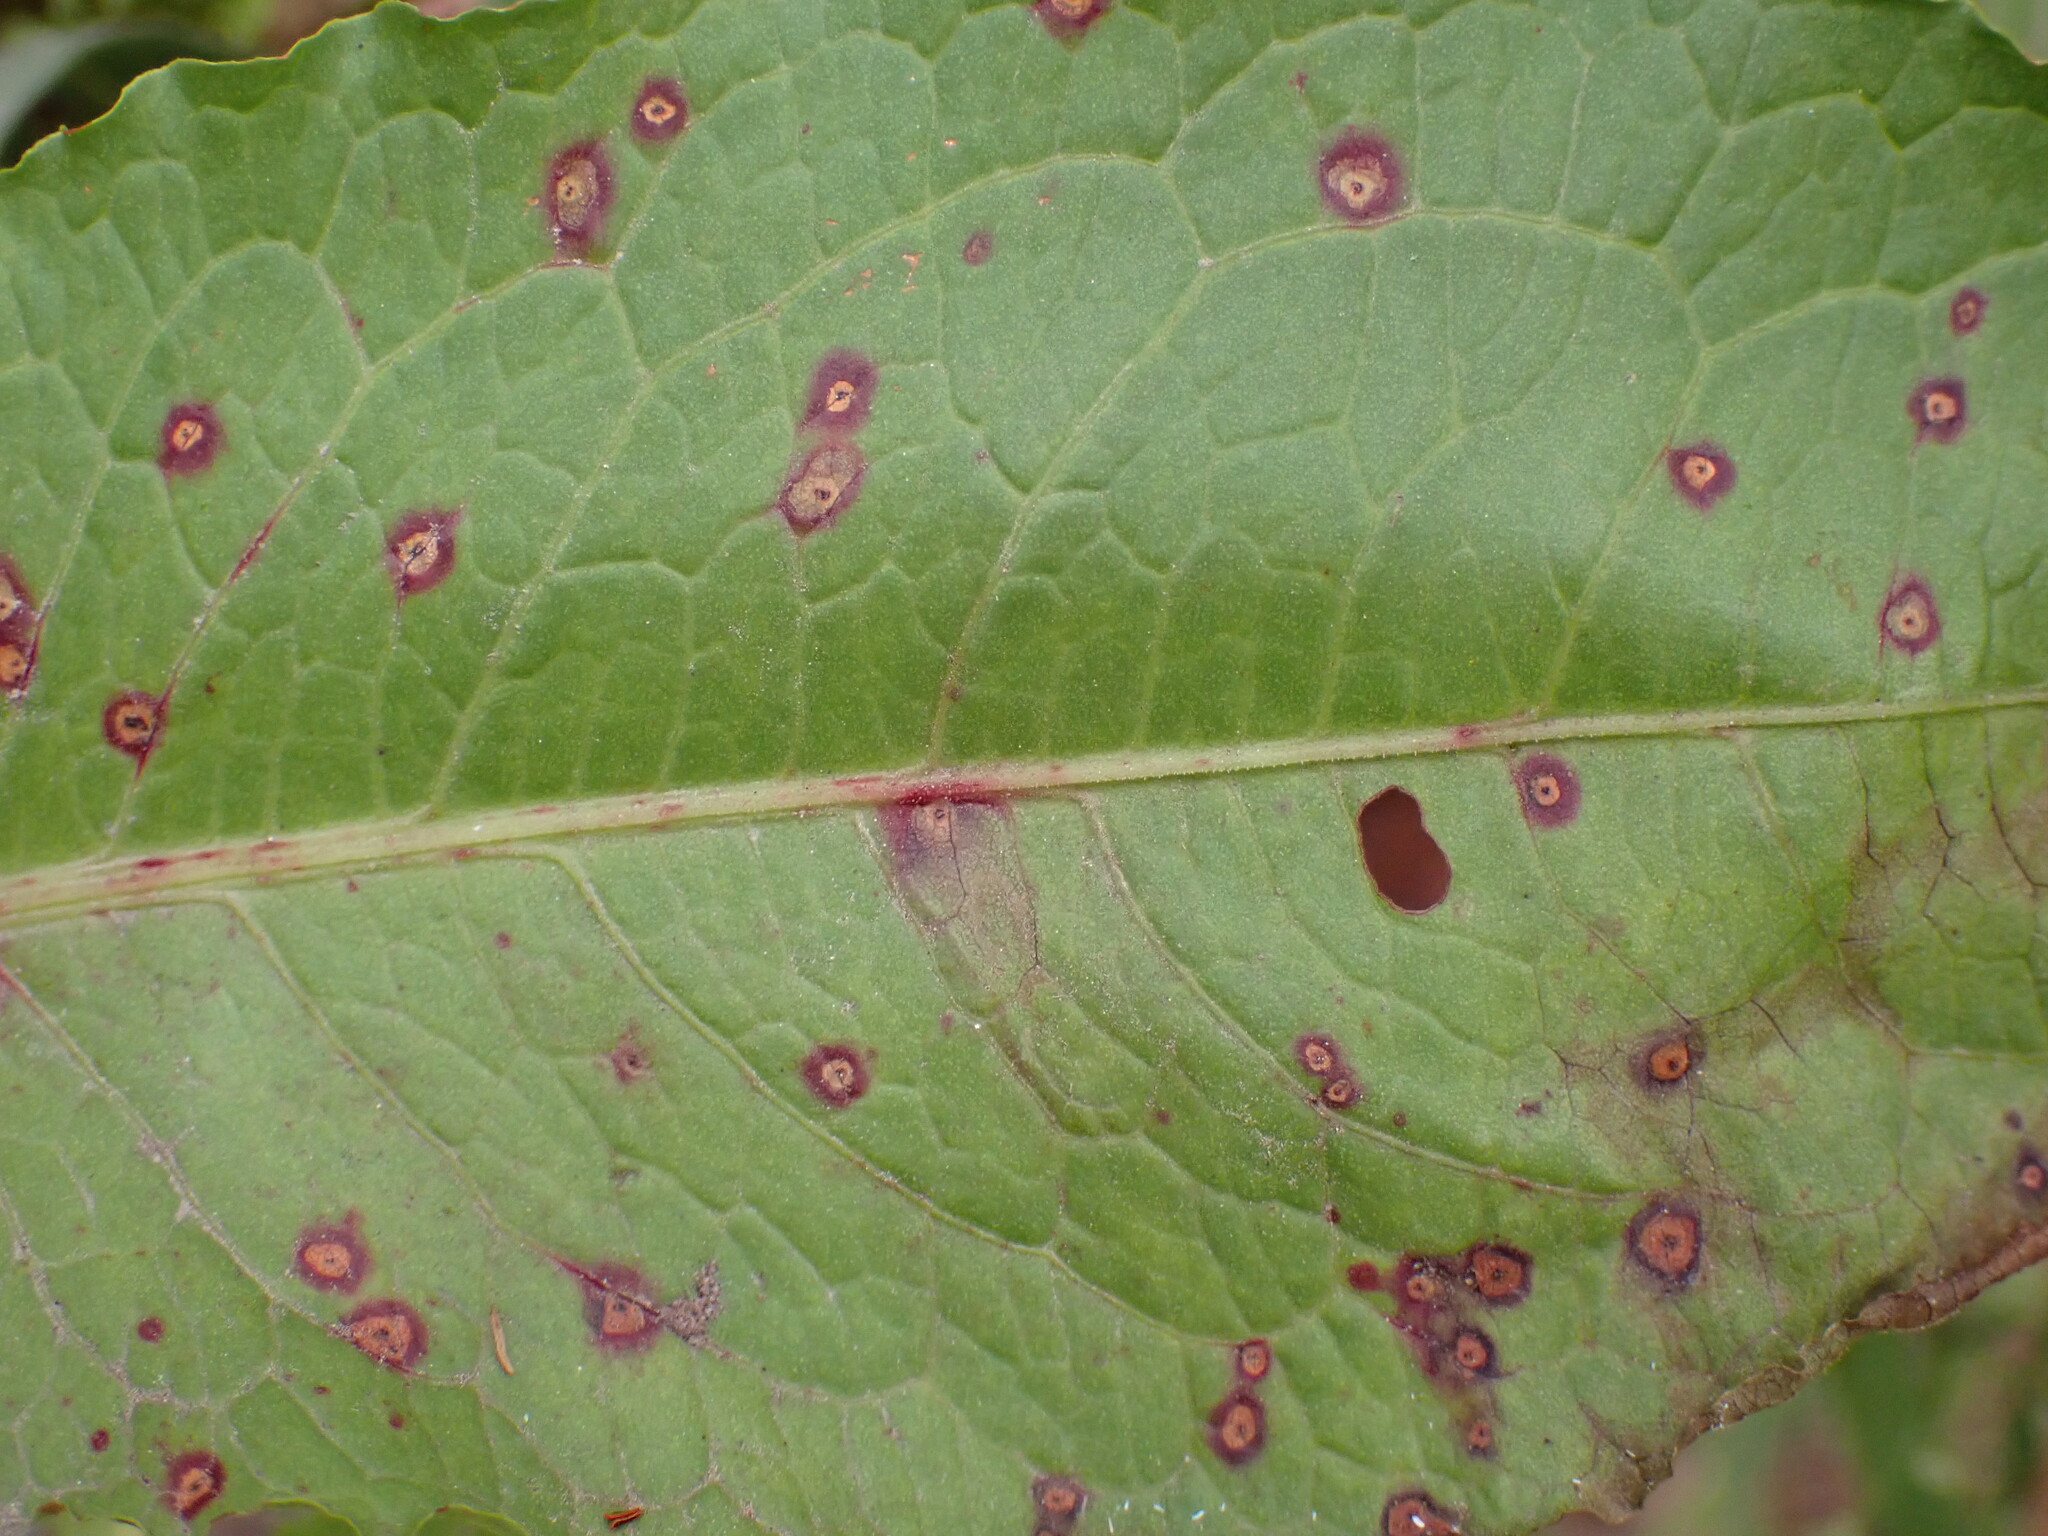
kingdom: Fungi
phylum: Ascomycota
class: Dothideomycetes
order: Mycosphaerellales
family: Mycosphaerellaceae
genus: Ramularia
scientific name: Ramularia rubella
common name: Red dock spot
